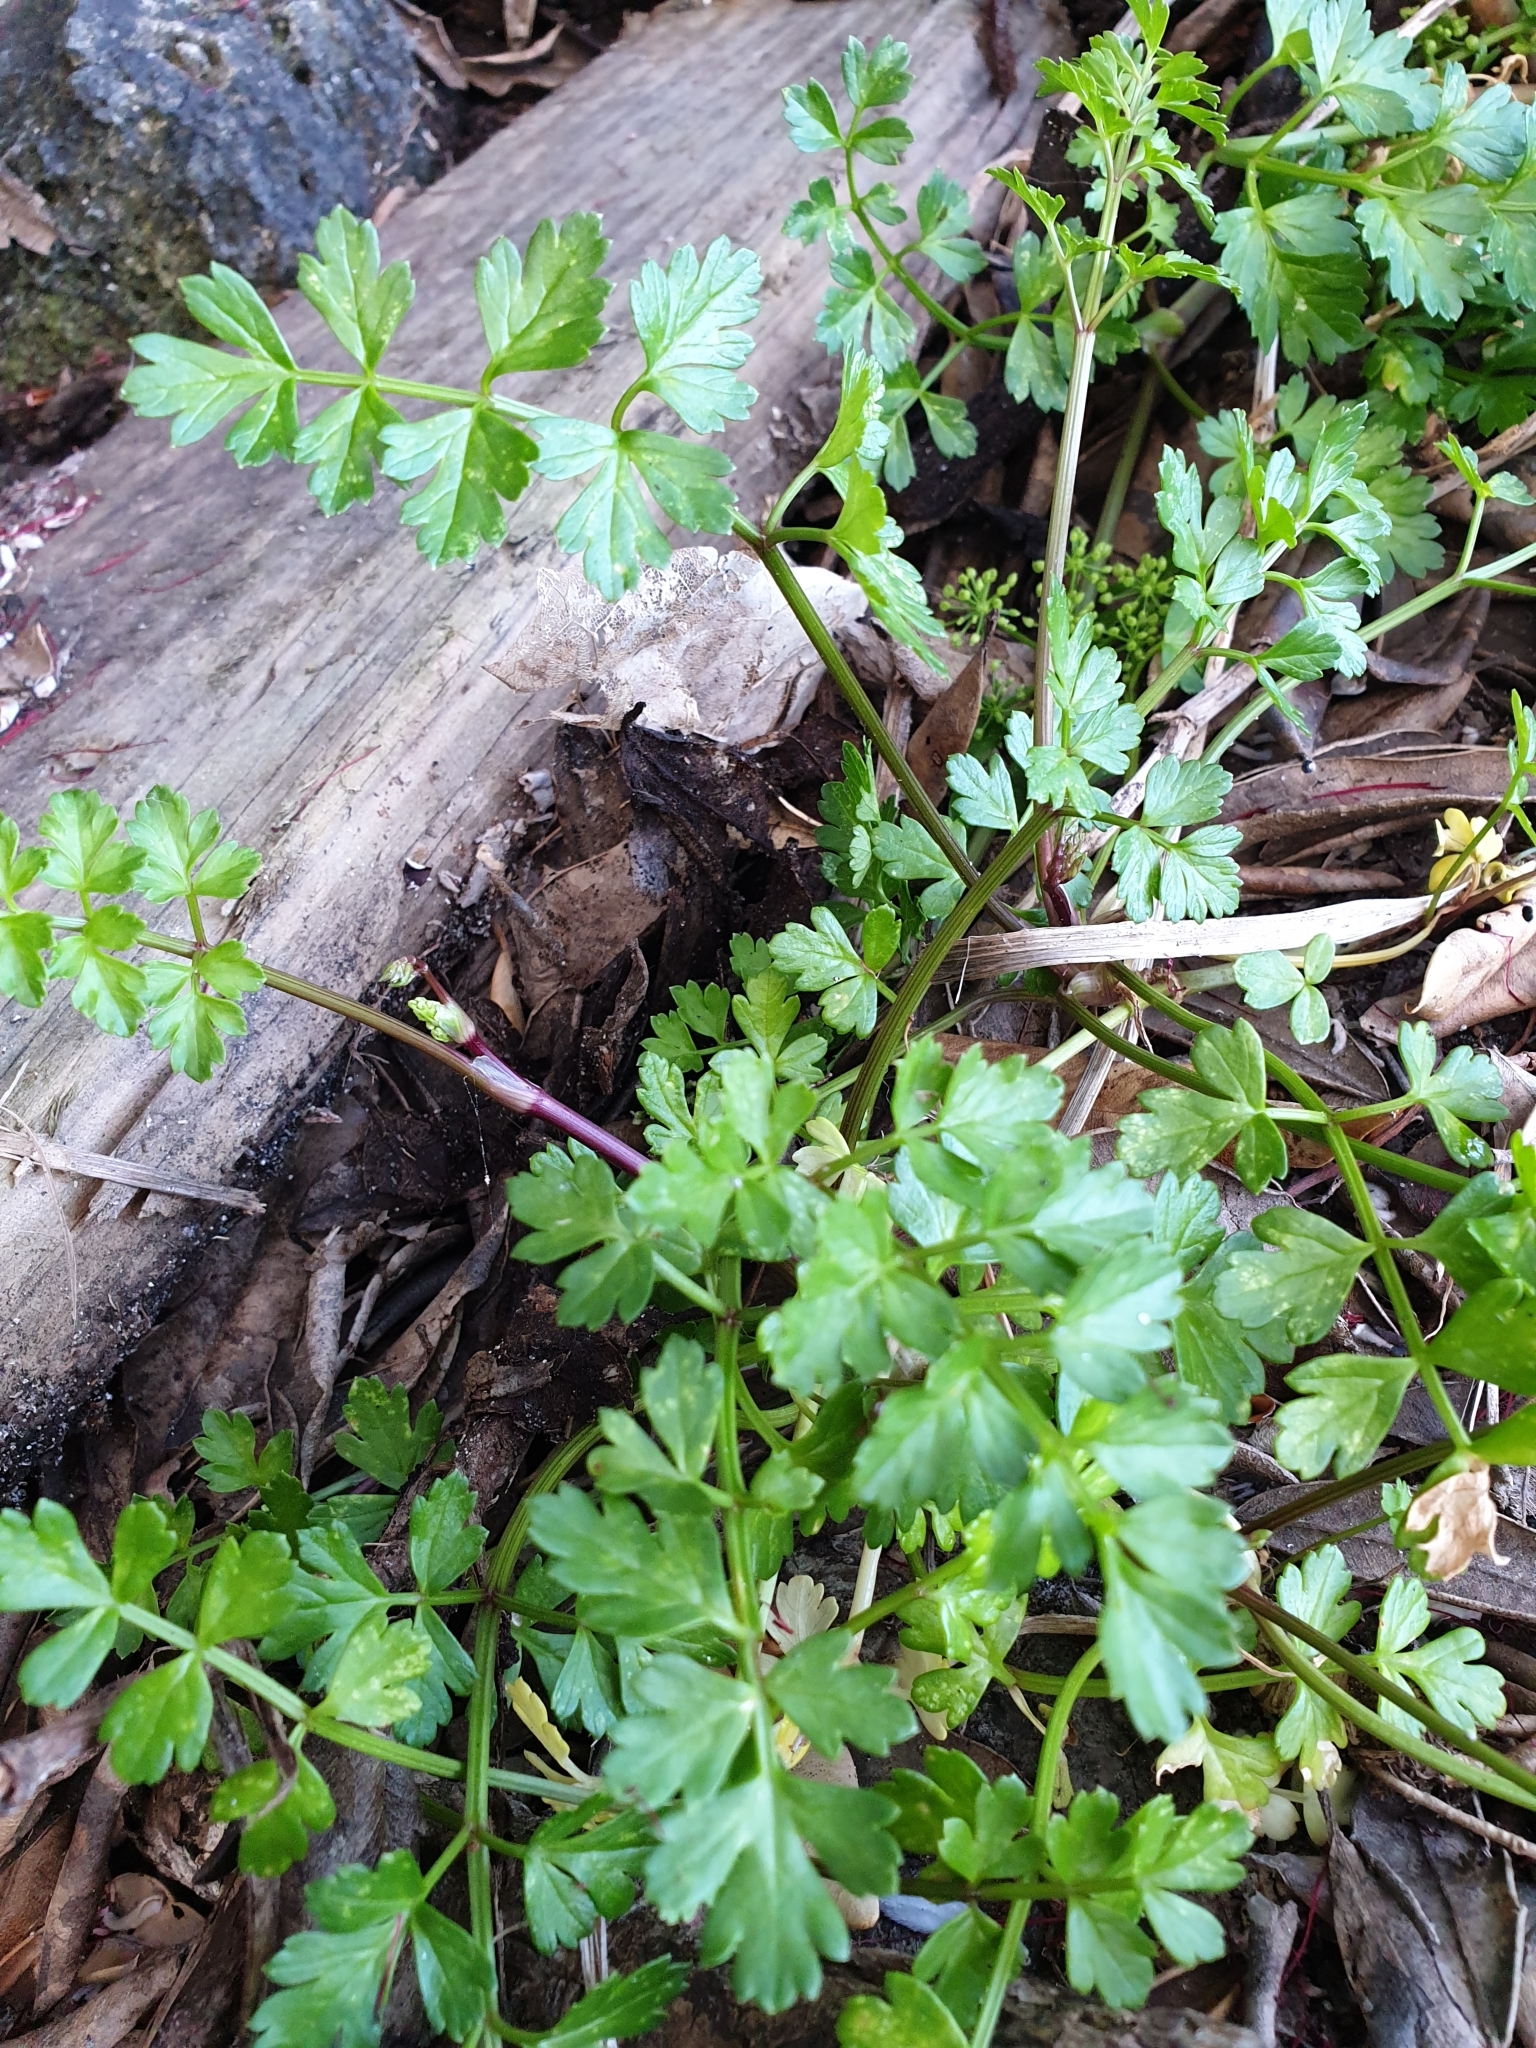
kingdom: Plantae
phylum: Tracheophyta
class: Magnoliopsida
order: Apiales
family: Apiaceae
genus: Apium
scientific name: Apium prostratum
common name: Prostrate marshwort
